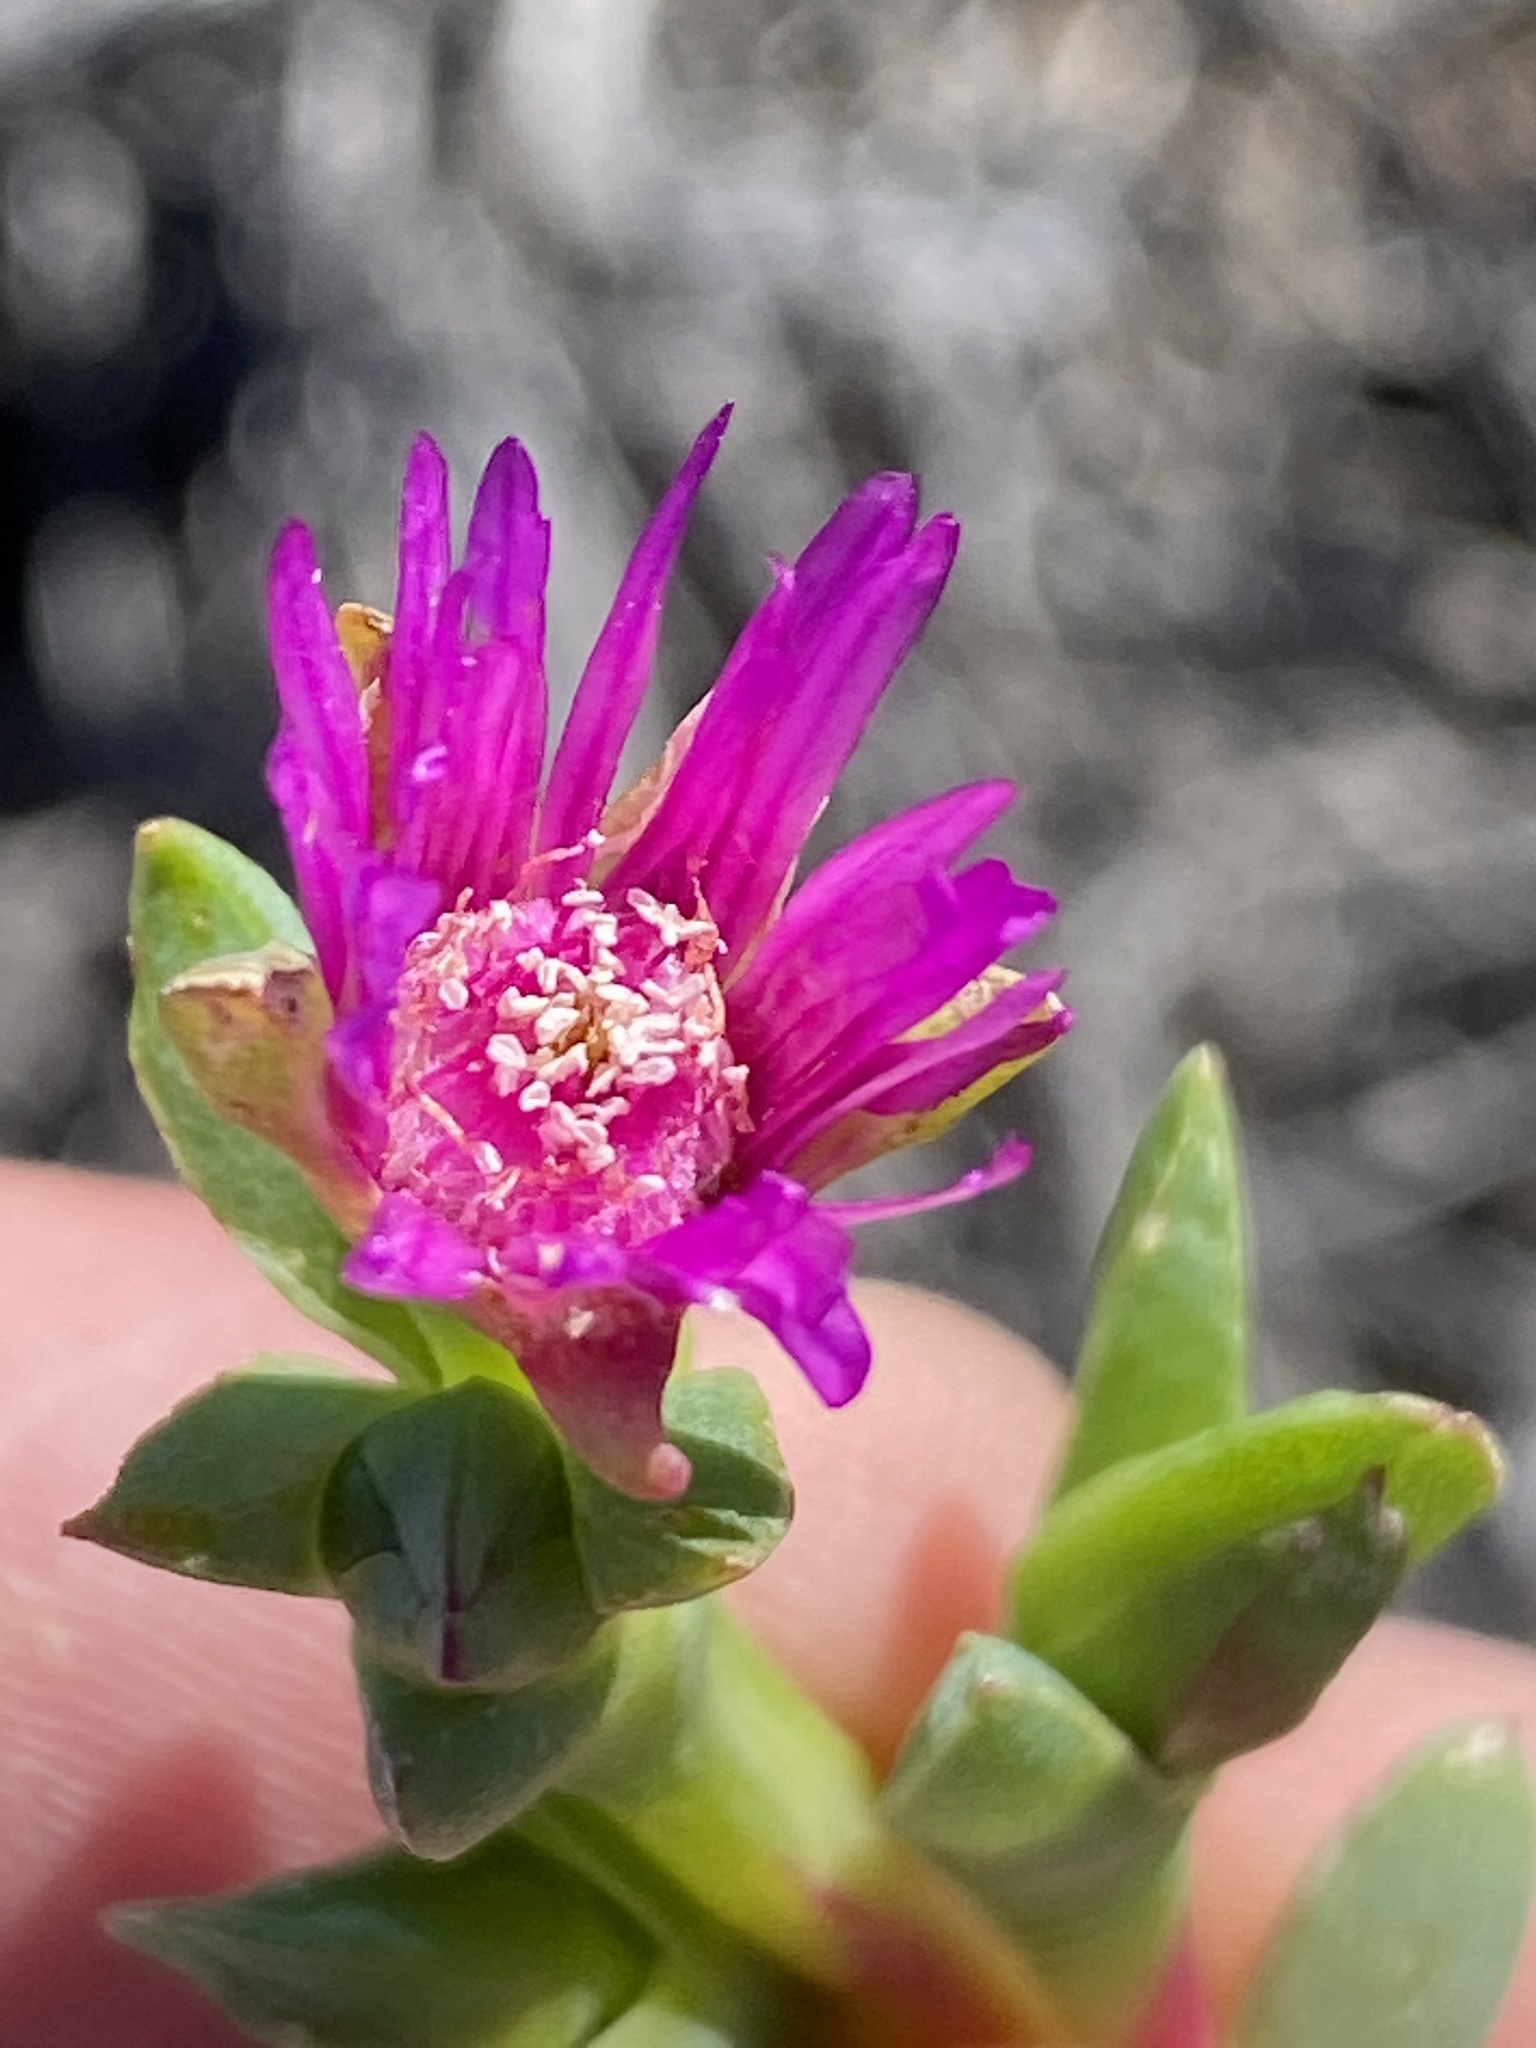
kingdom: Plantae
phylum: Tracheophyta
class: Magnoliopsida
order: Caryophyllales
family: Aizoaceae
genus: Ruschia
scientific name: Ruschia caroli
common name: Shrubby dewplant
